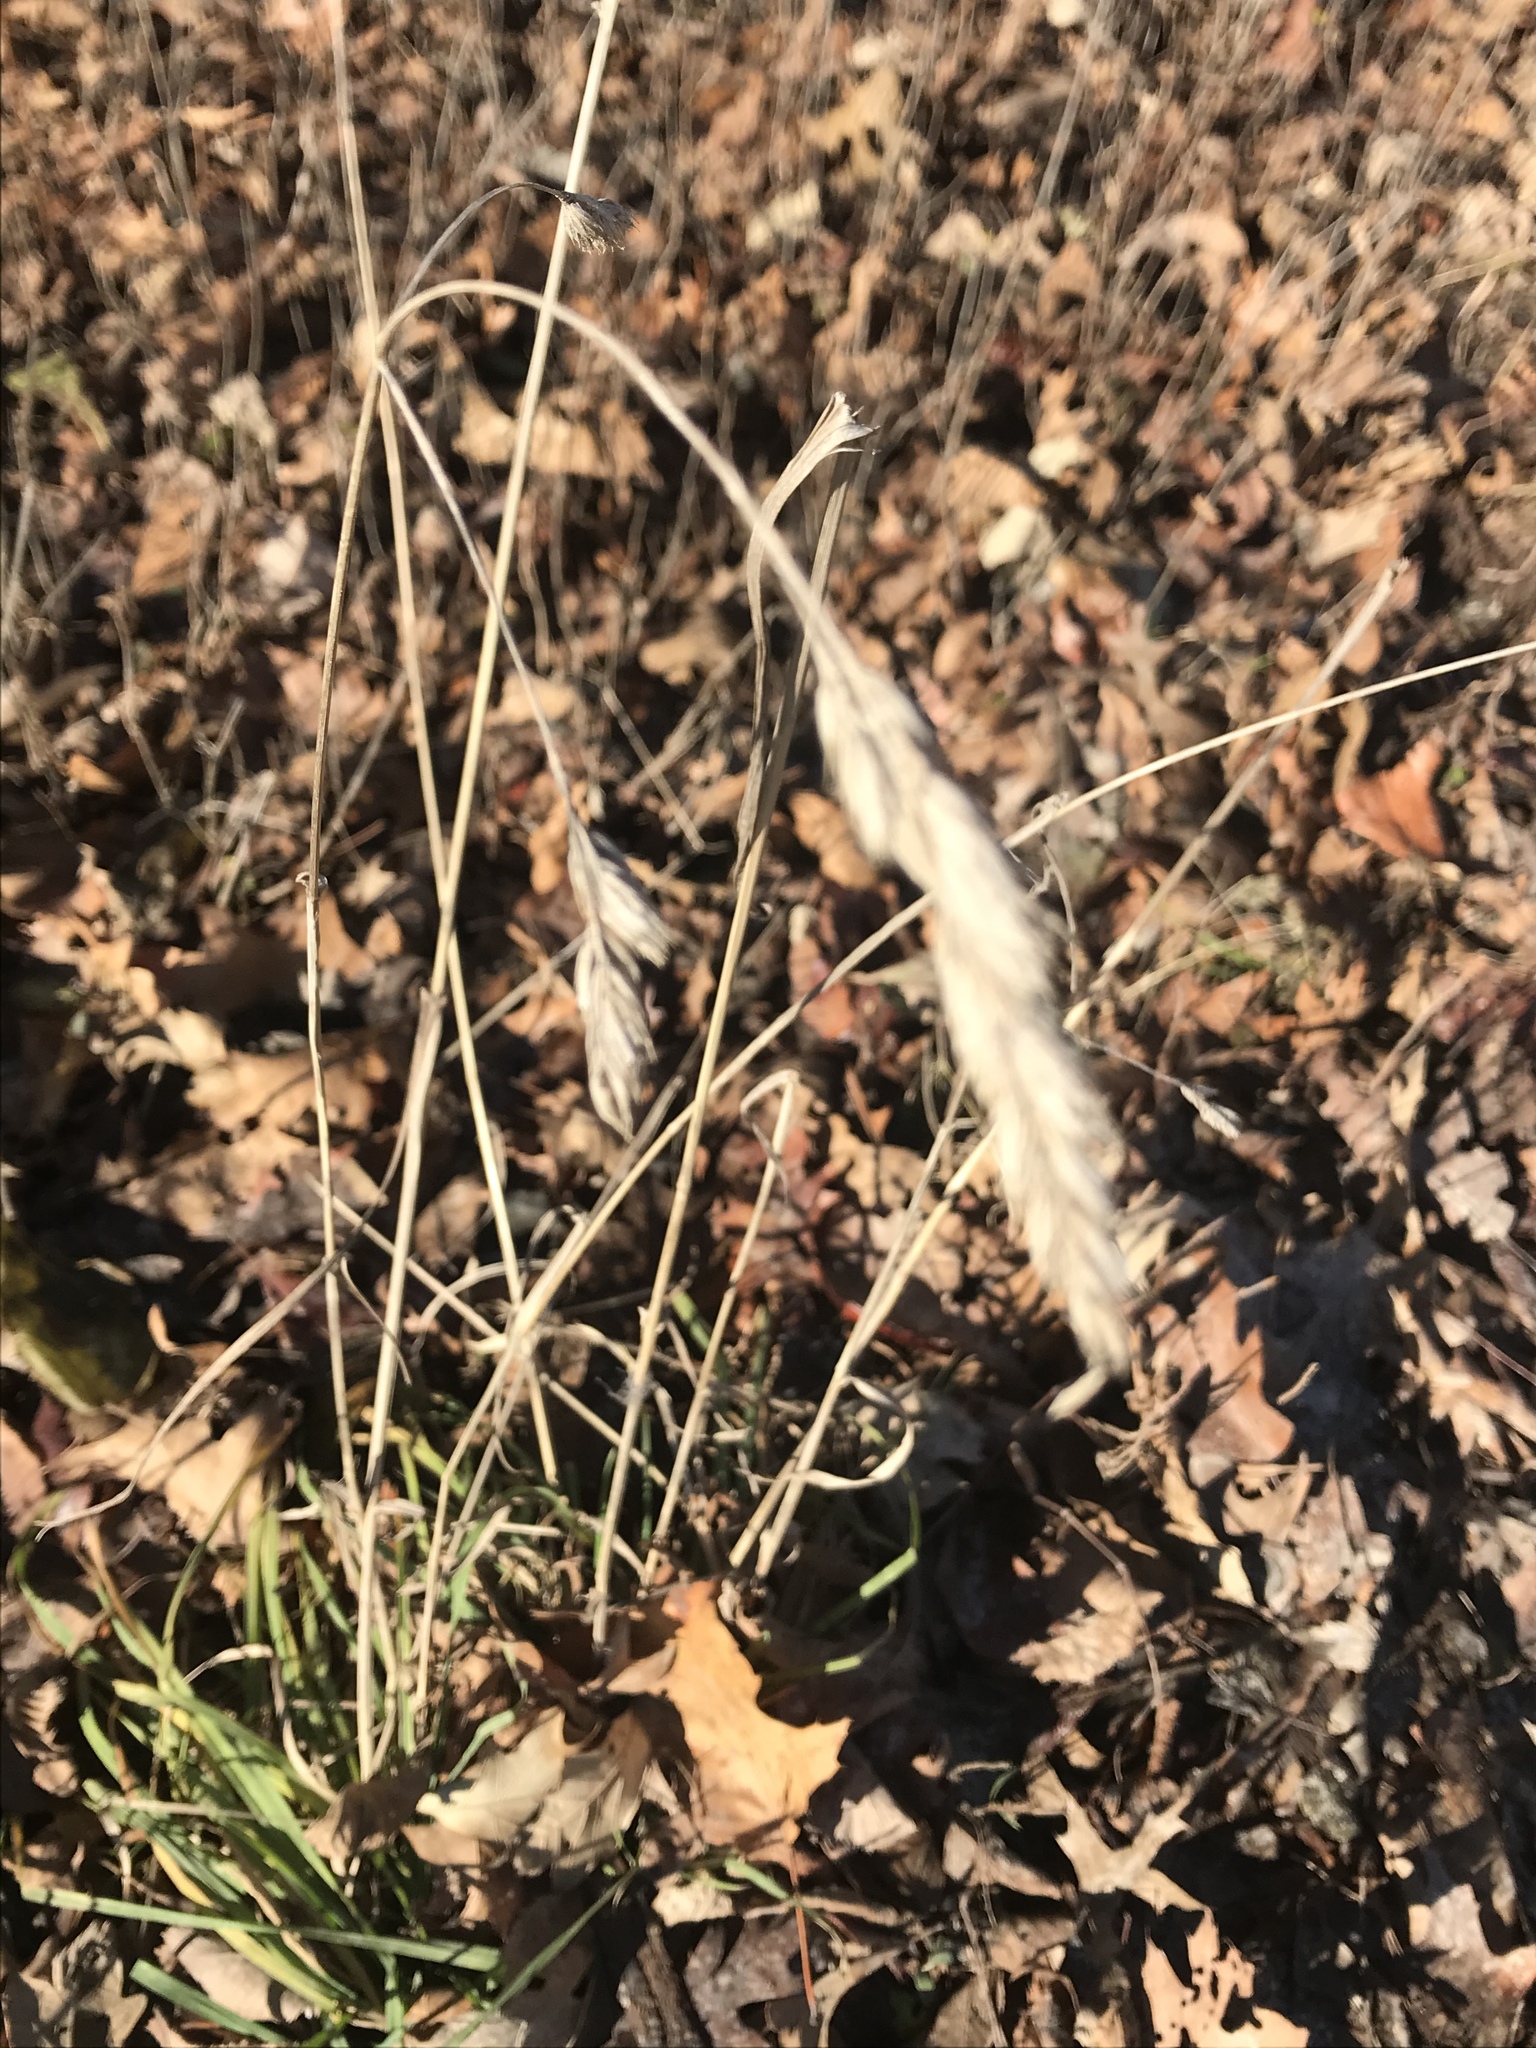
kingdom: Plantae
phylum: Tracheophyta
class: Liliopsida
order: Poales
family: Poaceae
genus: Dactylis
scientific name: Dactylis glomerata
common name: Orchardgrass
